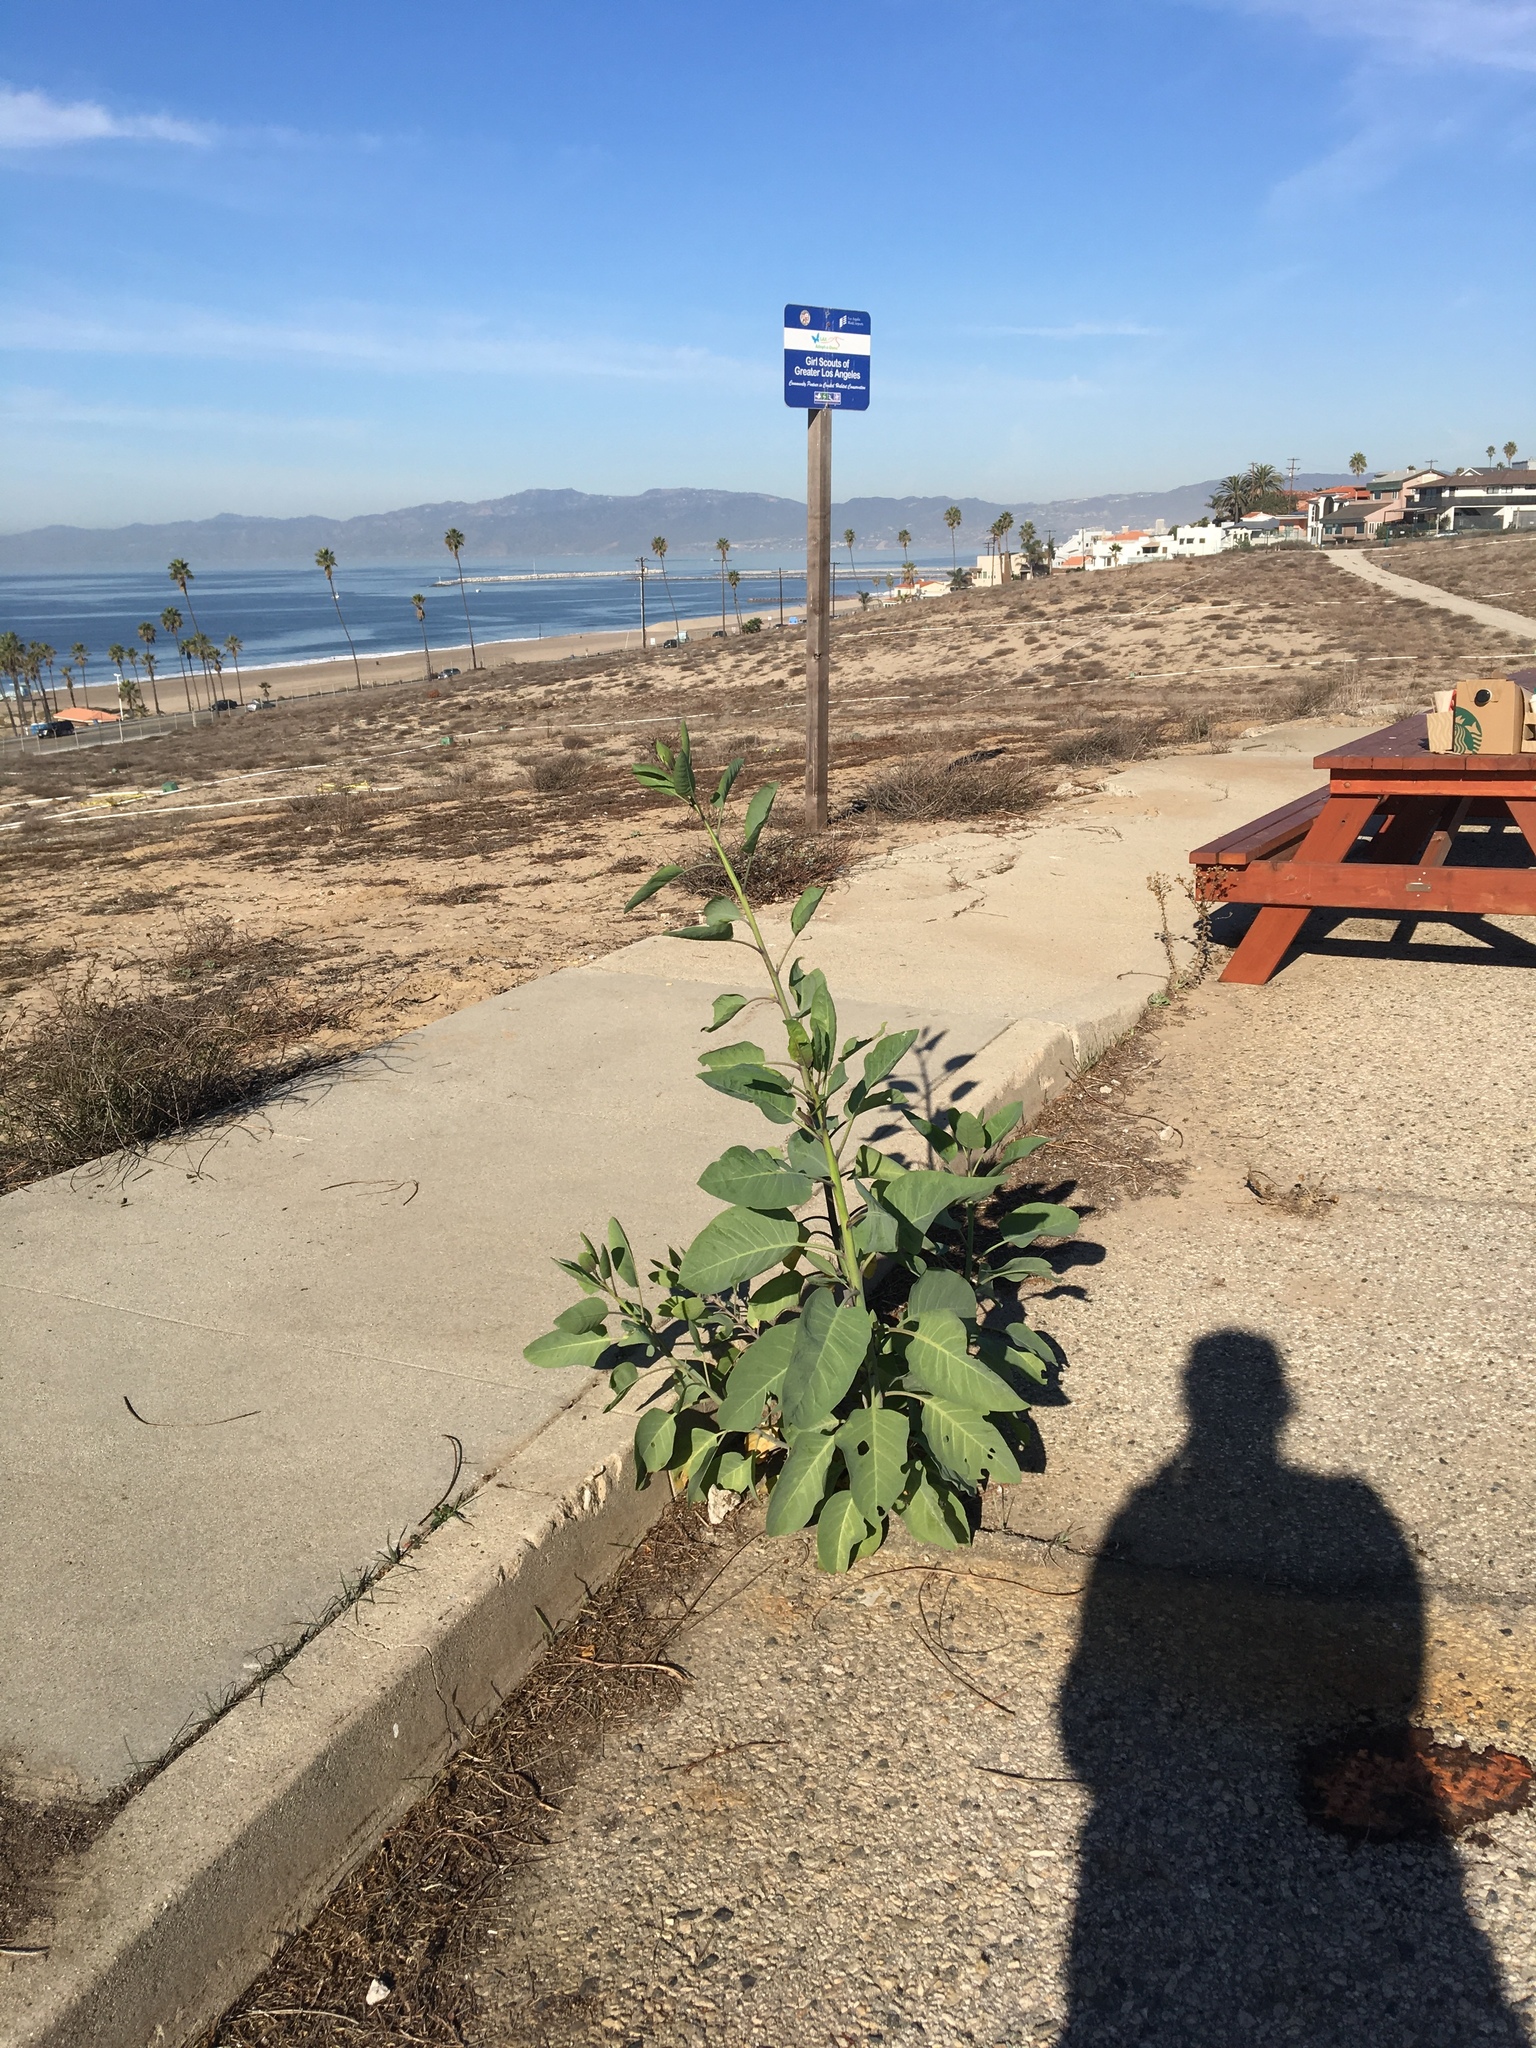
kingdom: Plantae
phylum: Tracheophyta
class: Magnoliopsida
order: Solanales
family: Solanaceae
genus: Nicotiana
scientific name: Nicotiana glauca
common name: Tree tobacco
